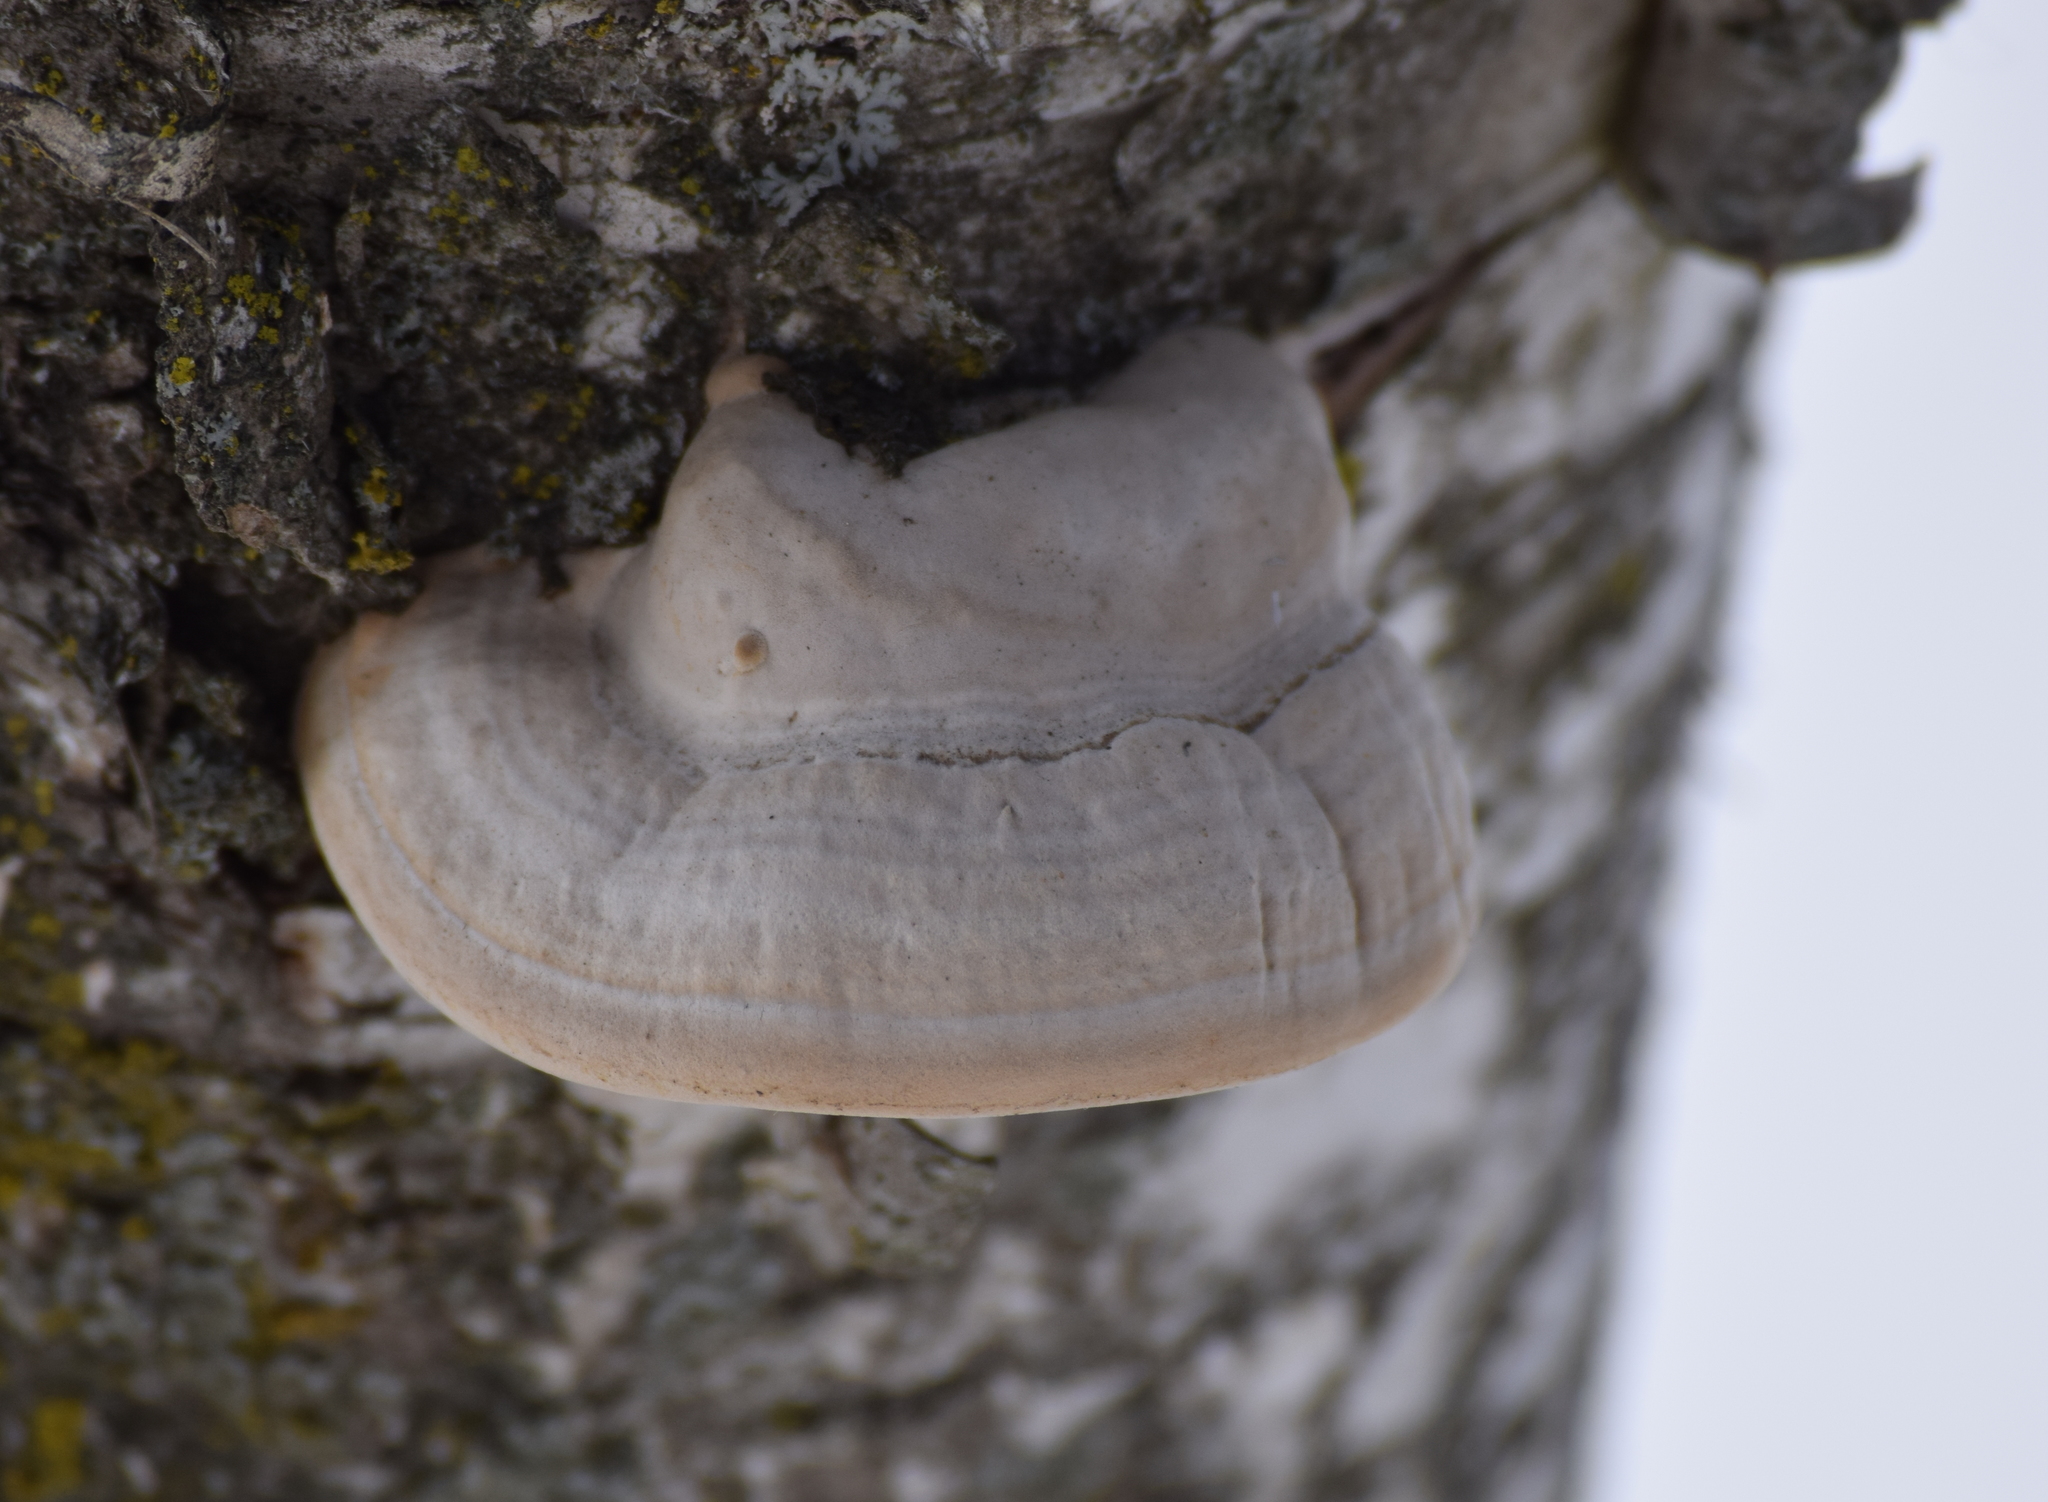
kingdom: Fungi
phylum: Basidiomycota
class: Agaricomycetes
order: Polyporales
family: Polyporaceae
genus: Fomes
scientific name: Fomes fomentarius
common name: Hoof fungus
